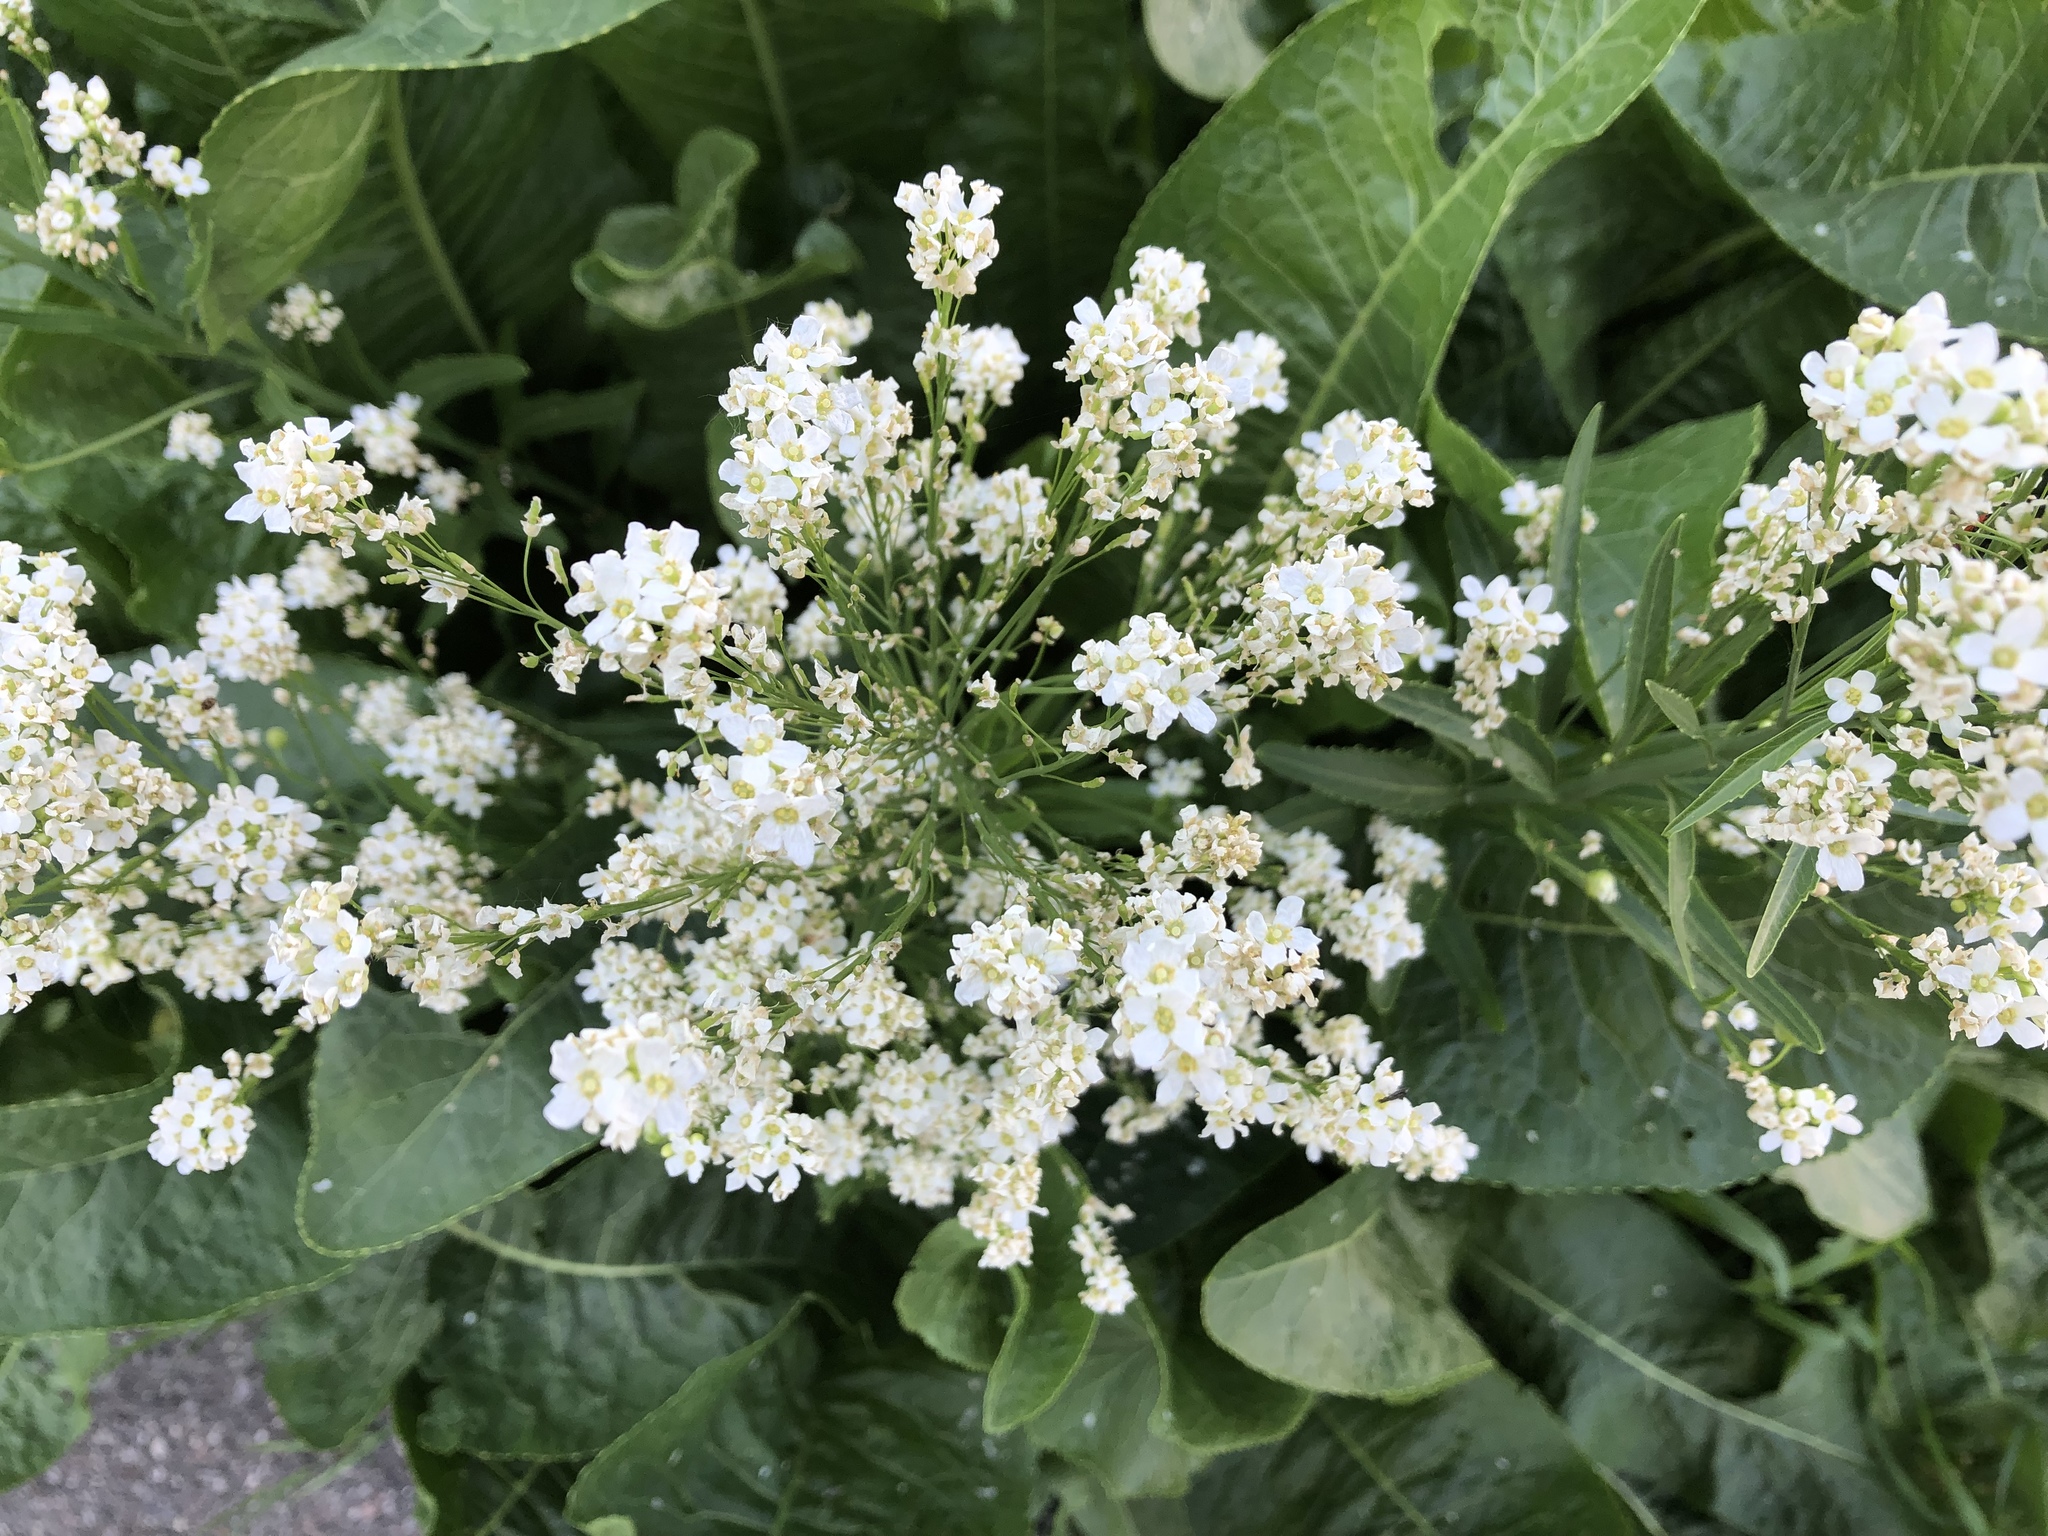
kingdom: Plantae
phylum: Tracheophyta
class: Magnoliopsida
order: Brassicales
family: Brassicaceae
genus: Armoracia
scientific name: Armoracia rusticana
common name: Horseradish
